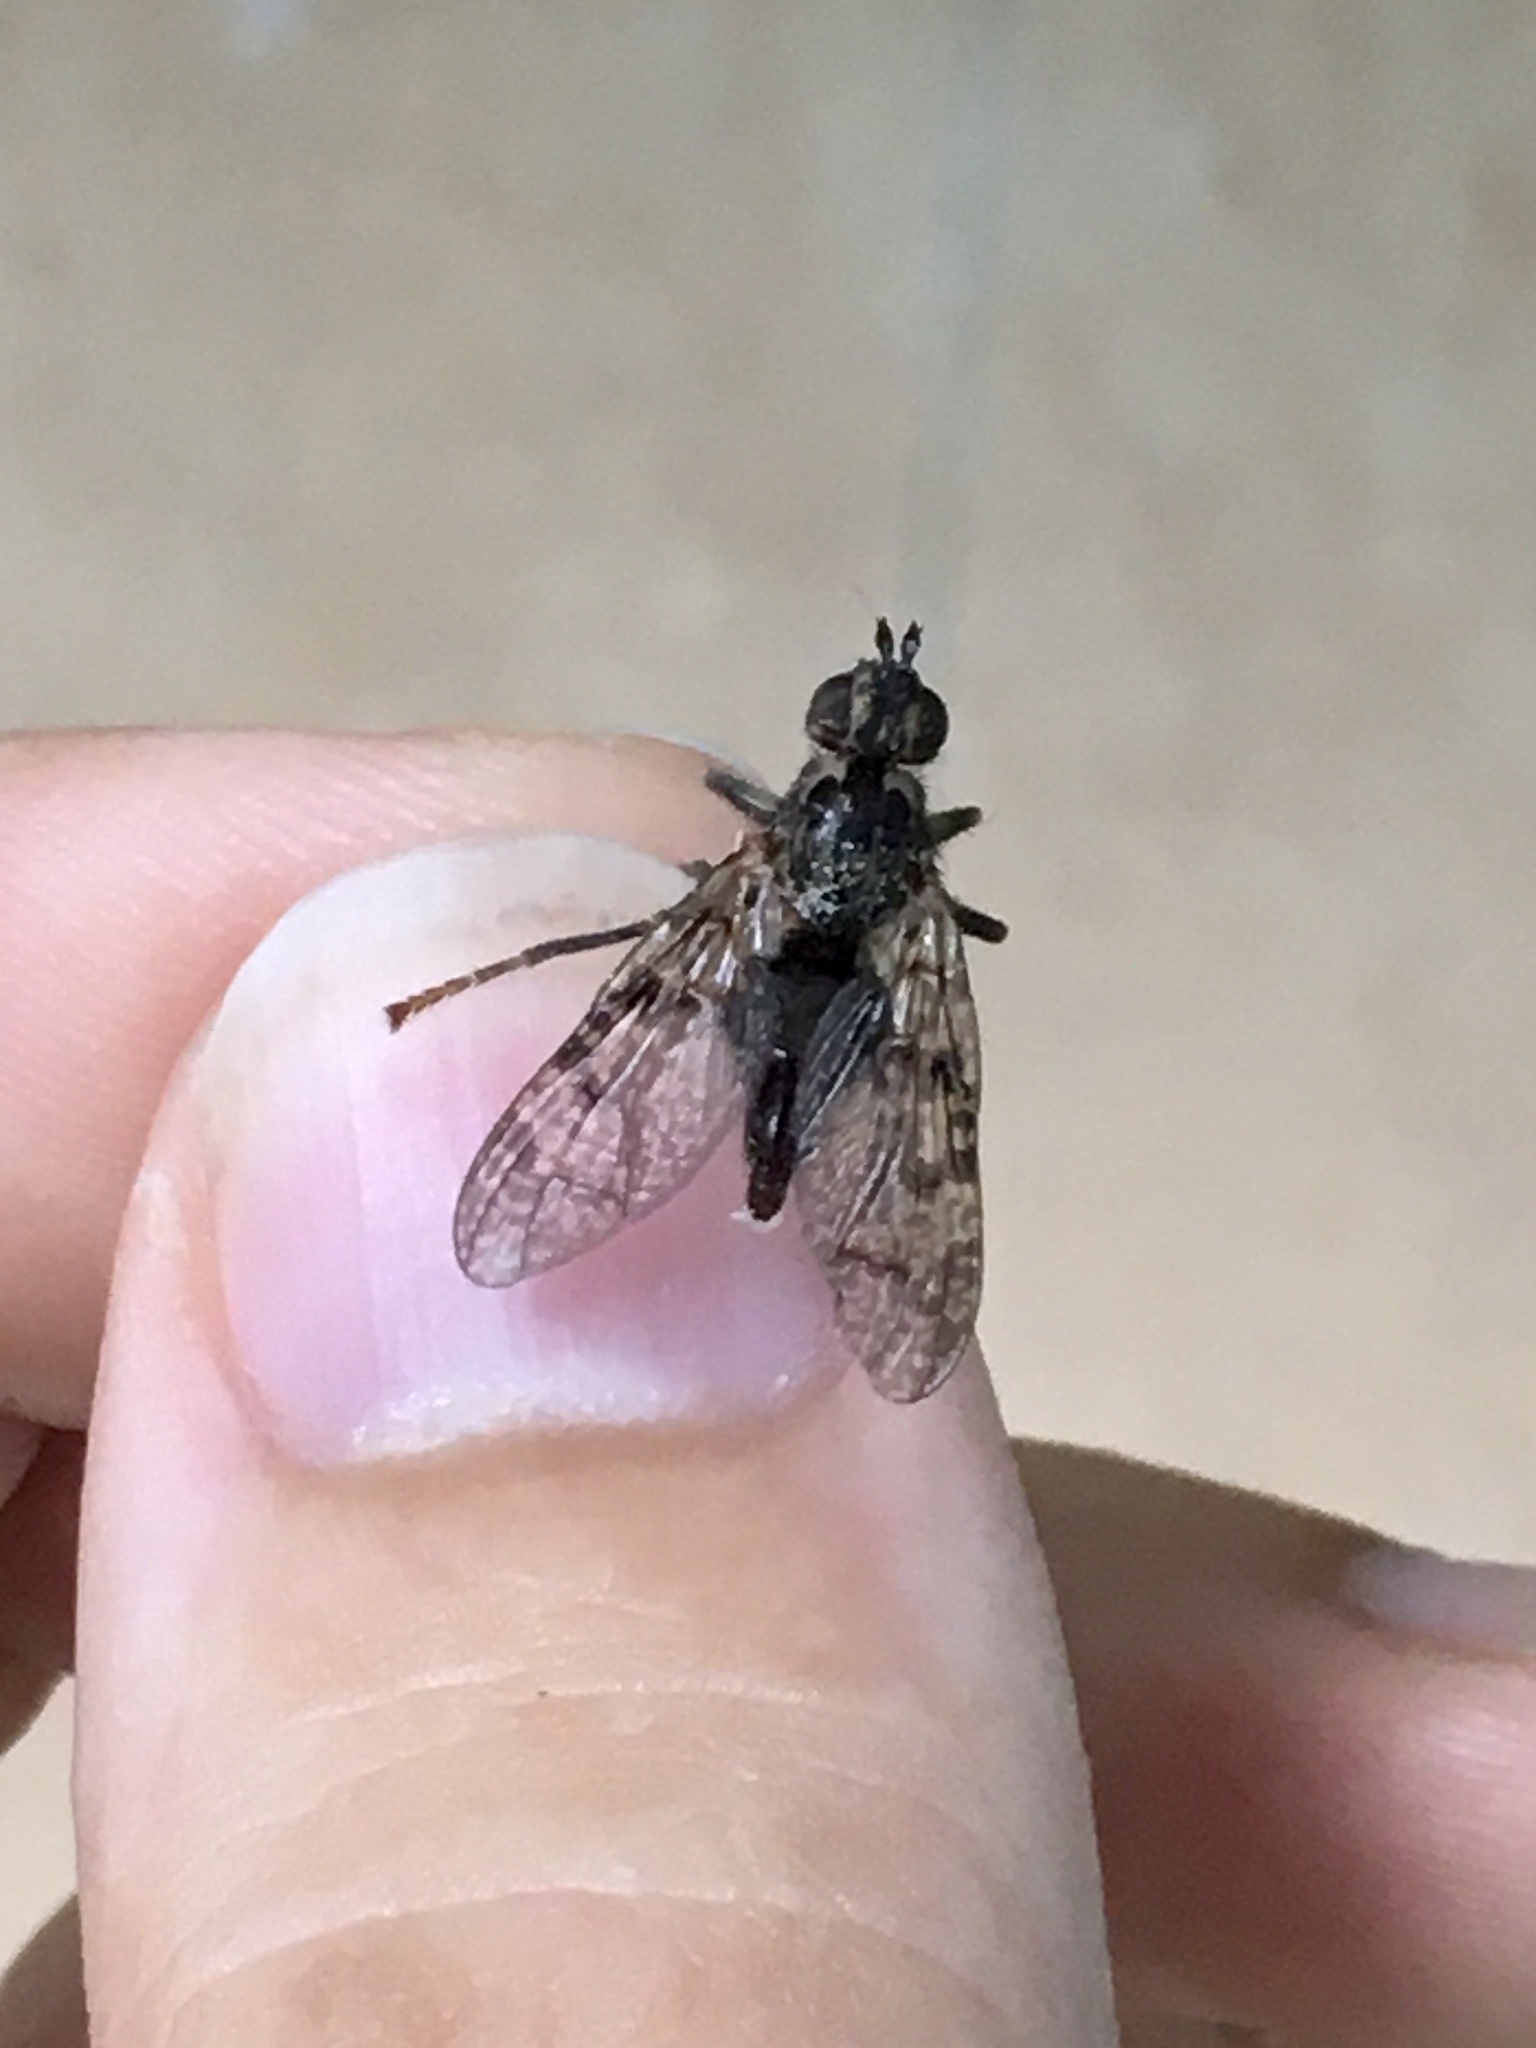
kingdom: Animalia
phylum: Arthropoda
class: Insecta
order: Diptera
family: Pyrgotidae
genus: Pyrgota
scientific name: Pyrgota valida
